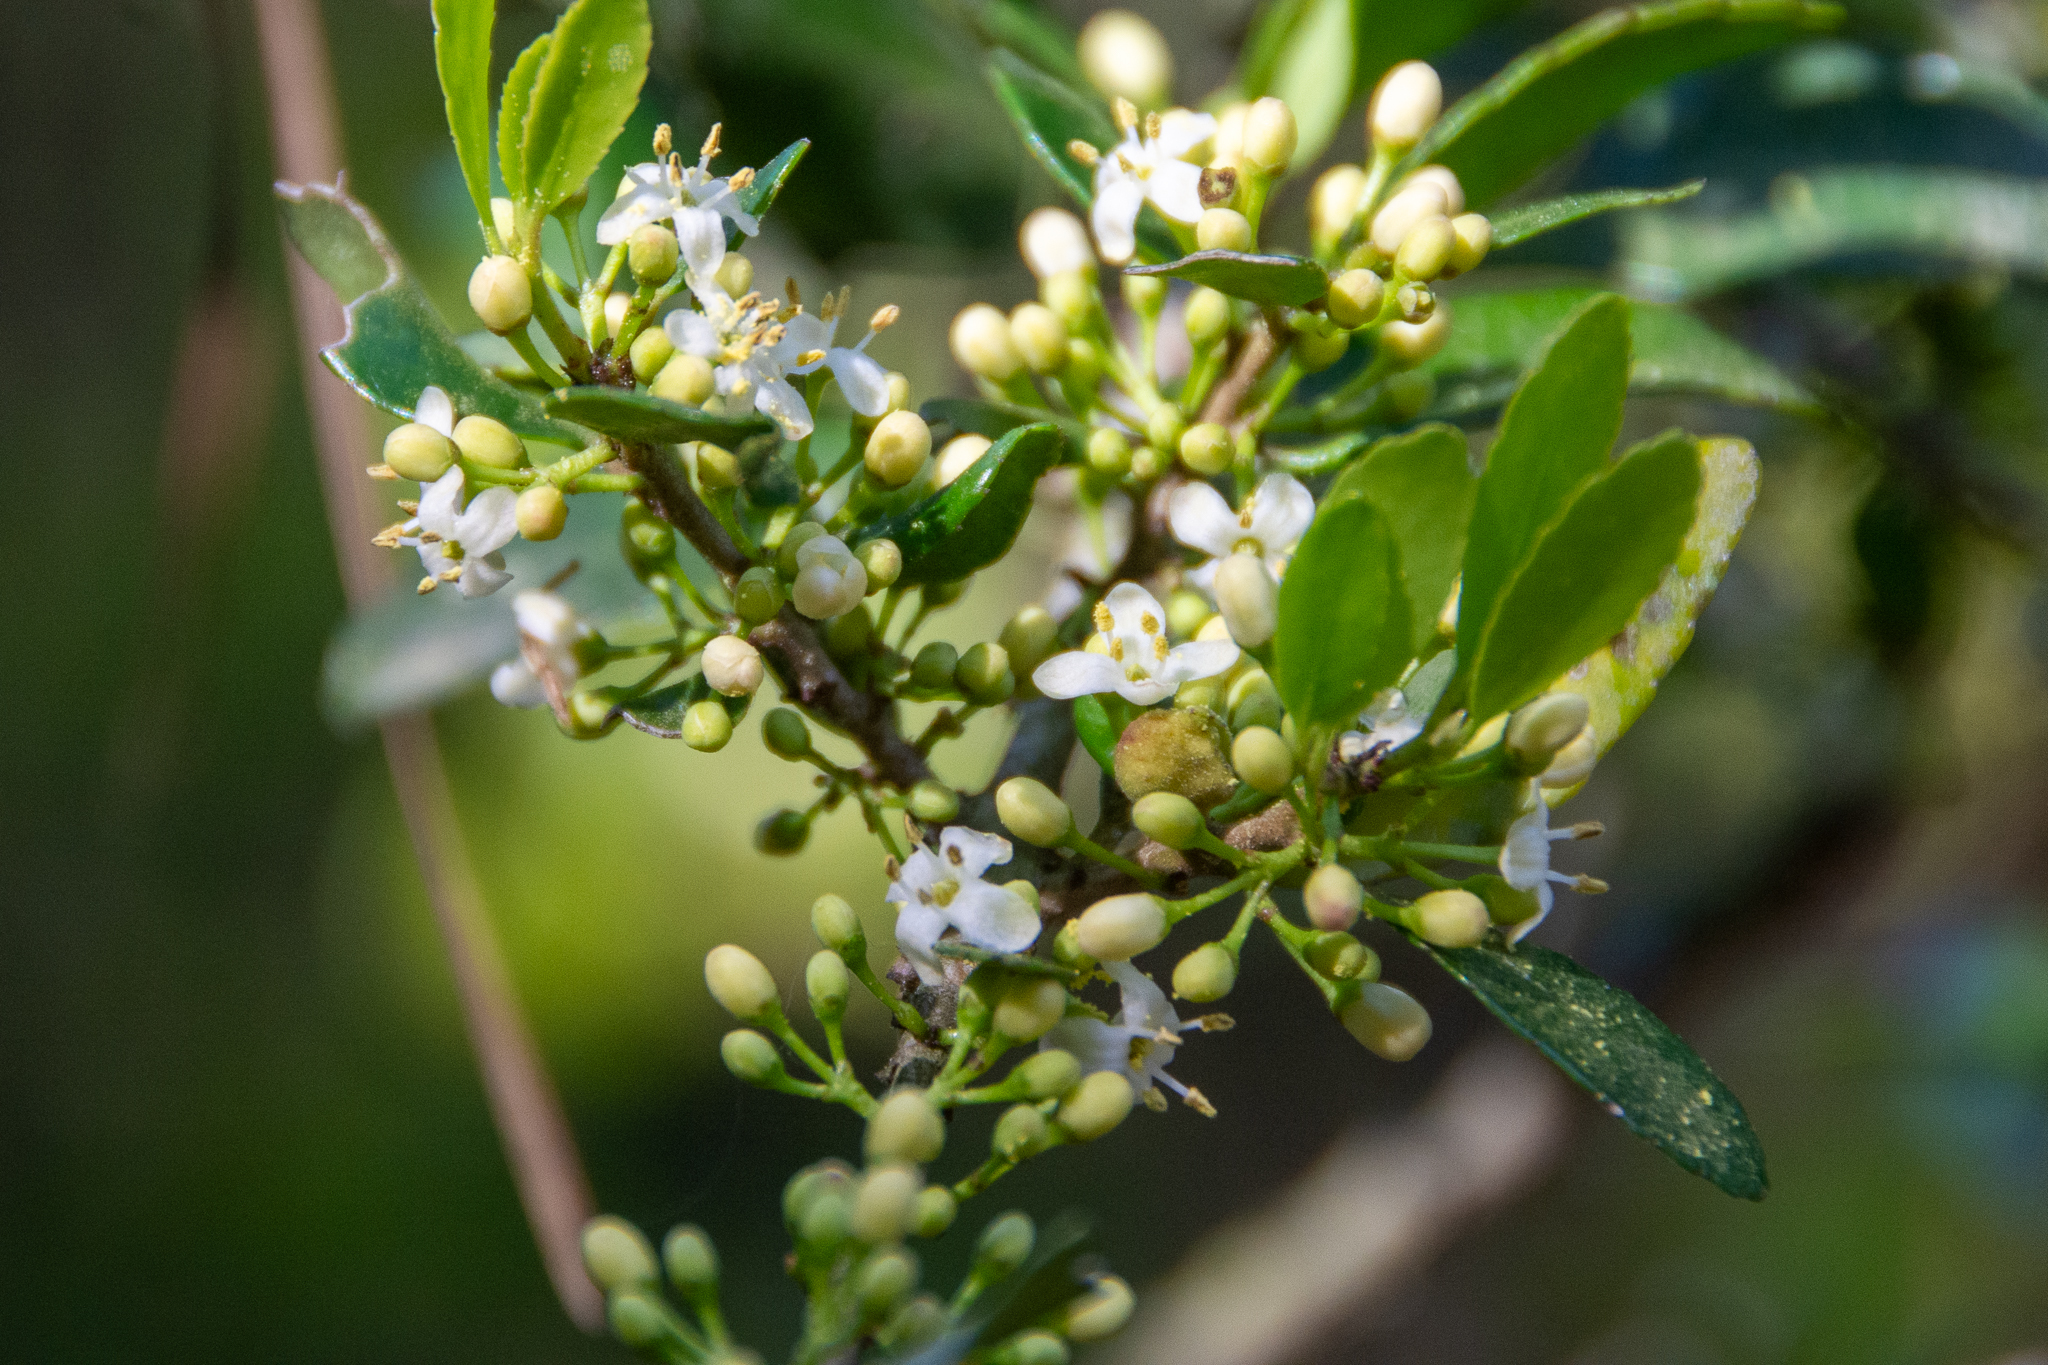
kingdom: Plantae
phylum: Tracheophyta
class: Magnoliopsida
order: Aquifoliales
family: Aquifoliaceae
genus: Ilex
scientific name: Ilex vomitoria
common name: Yaupon holly
